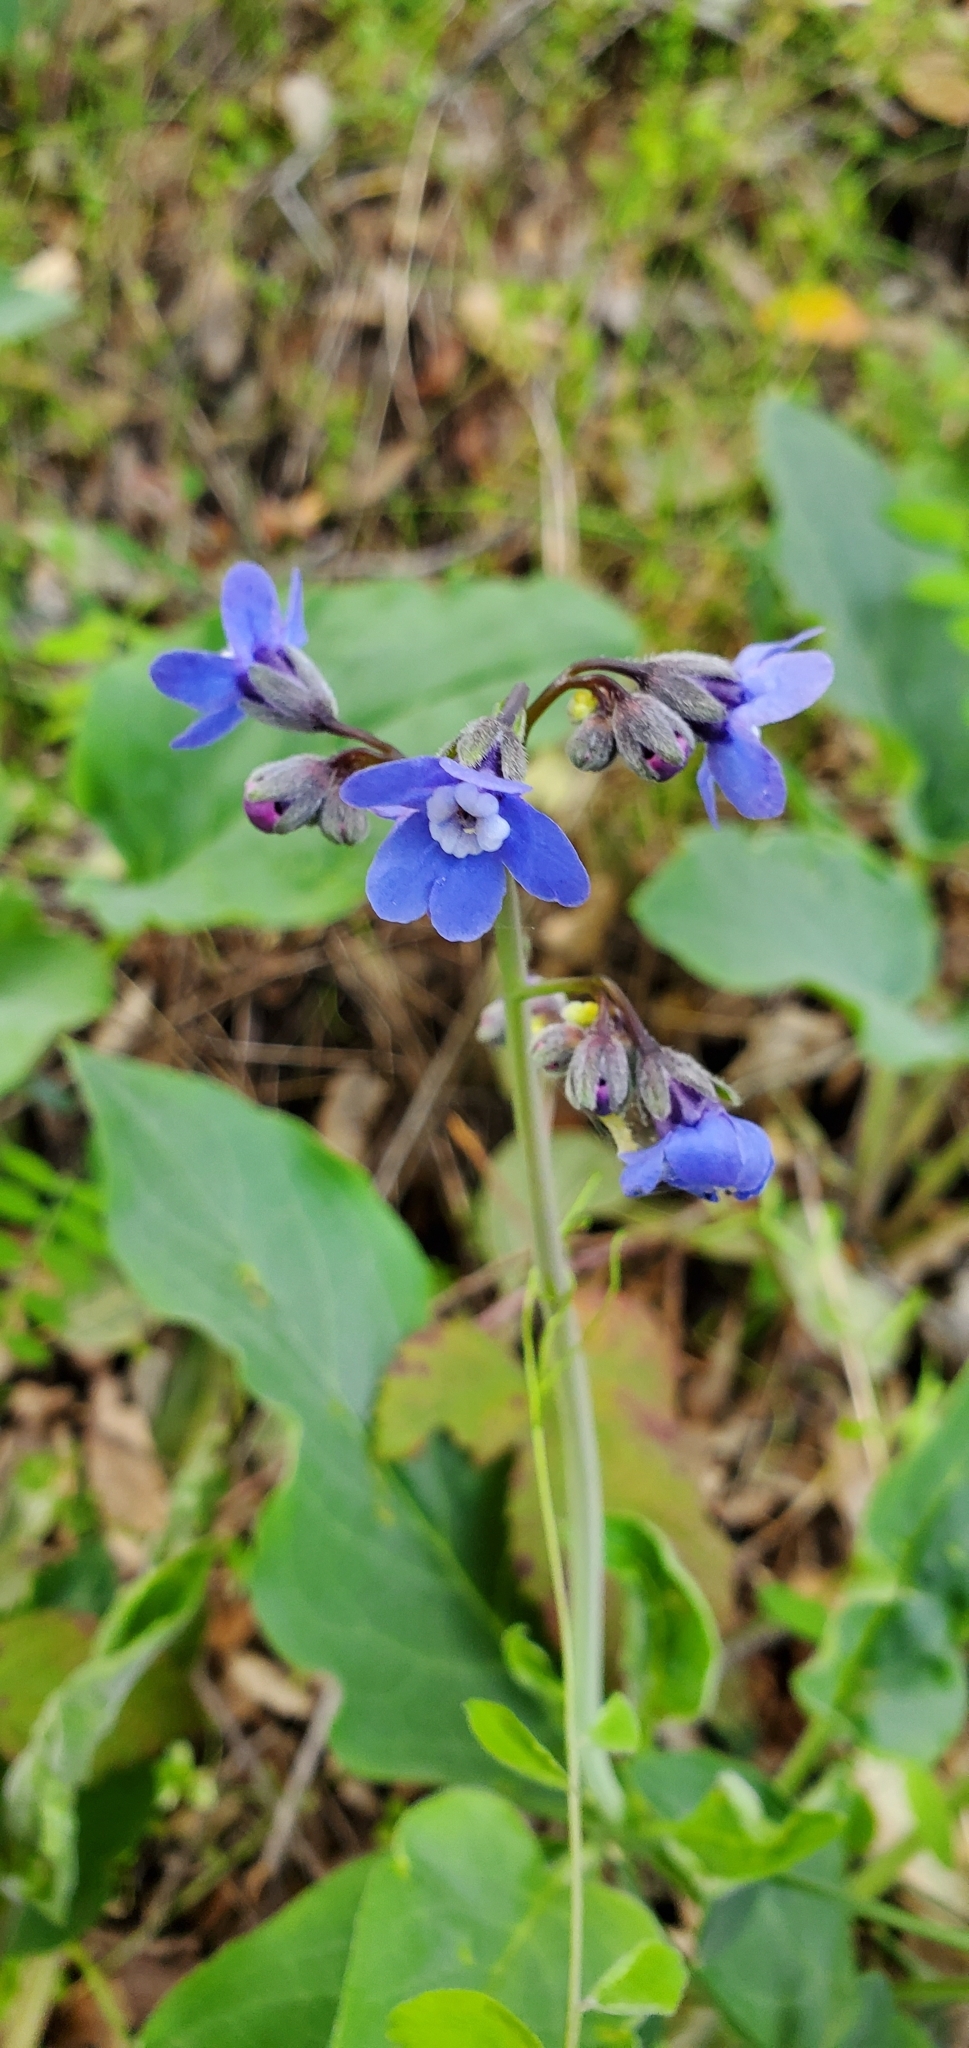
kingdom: Plantae
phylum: Tracheophyta
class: Magnoliopsida
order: Boraginales
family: Boraginaceae
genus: Adelinia
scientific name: Adelinia grande
